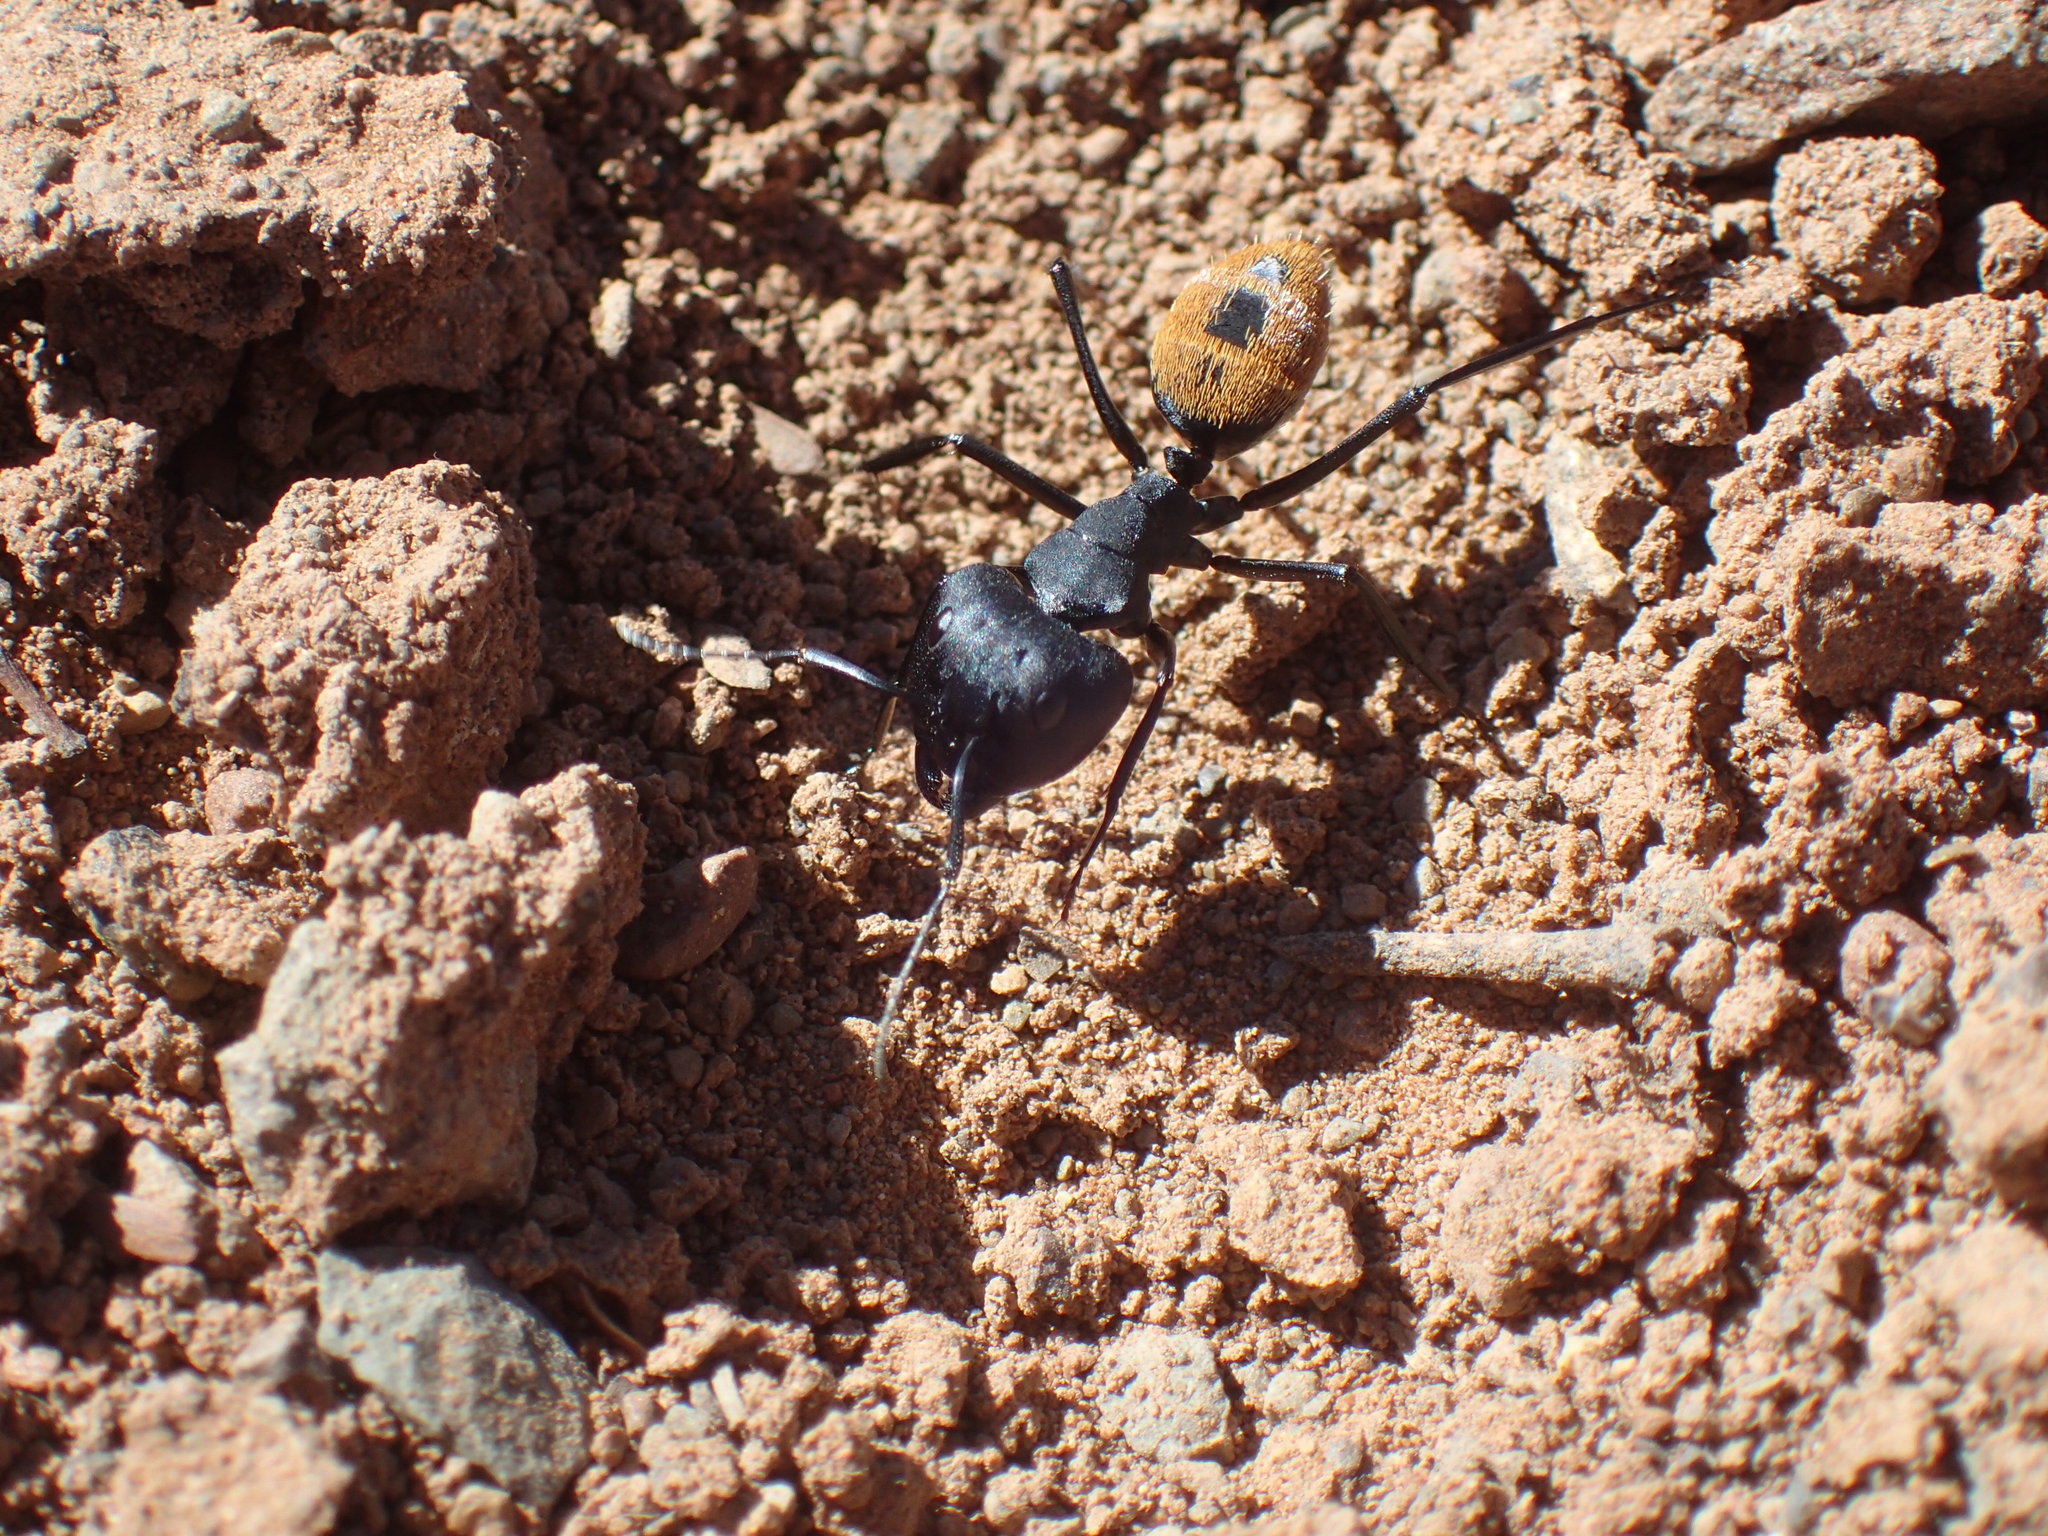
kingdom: Animalia
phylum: Arthropoda
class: Insecta
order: Hymenoptera
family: Formicidae
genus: Camponotus
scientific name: Camponotus fulvopilosus
